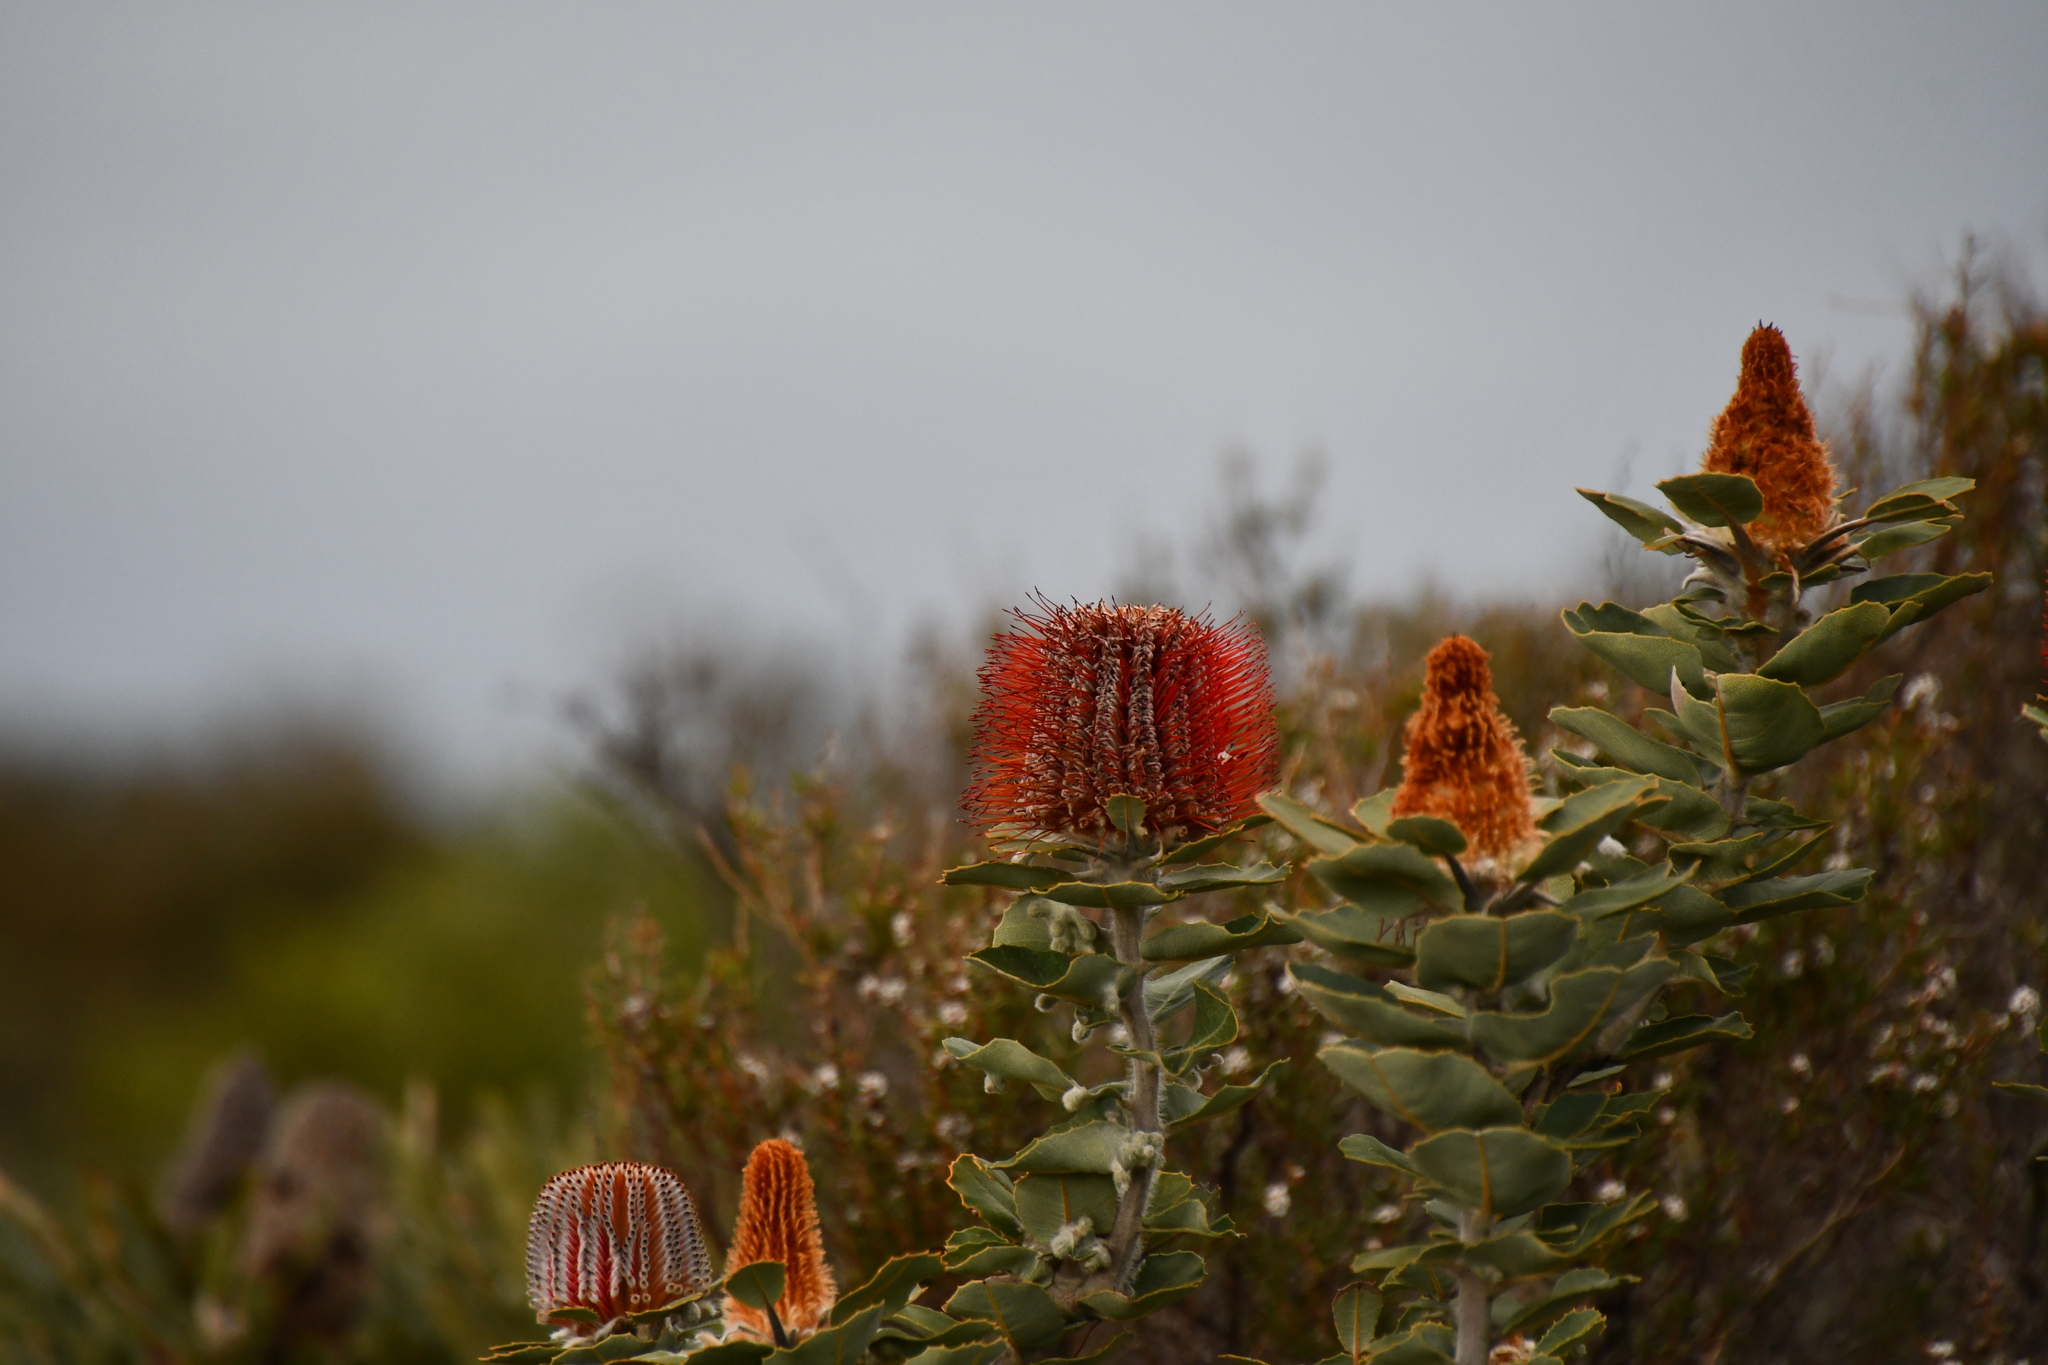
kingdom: Plantae
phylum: Tracheophyta
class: Magnoliopsida
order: Proteales
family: Proteaceae
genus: Banksia
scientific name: Banksia coccinea
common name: Scarlet banksia
